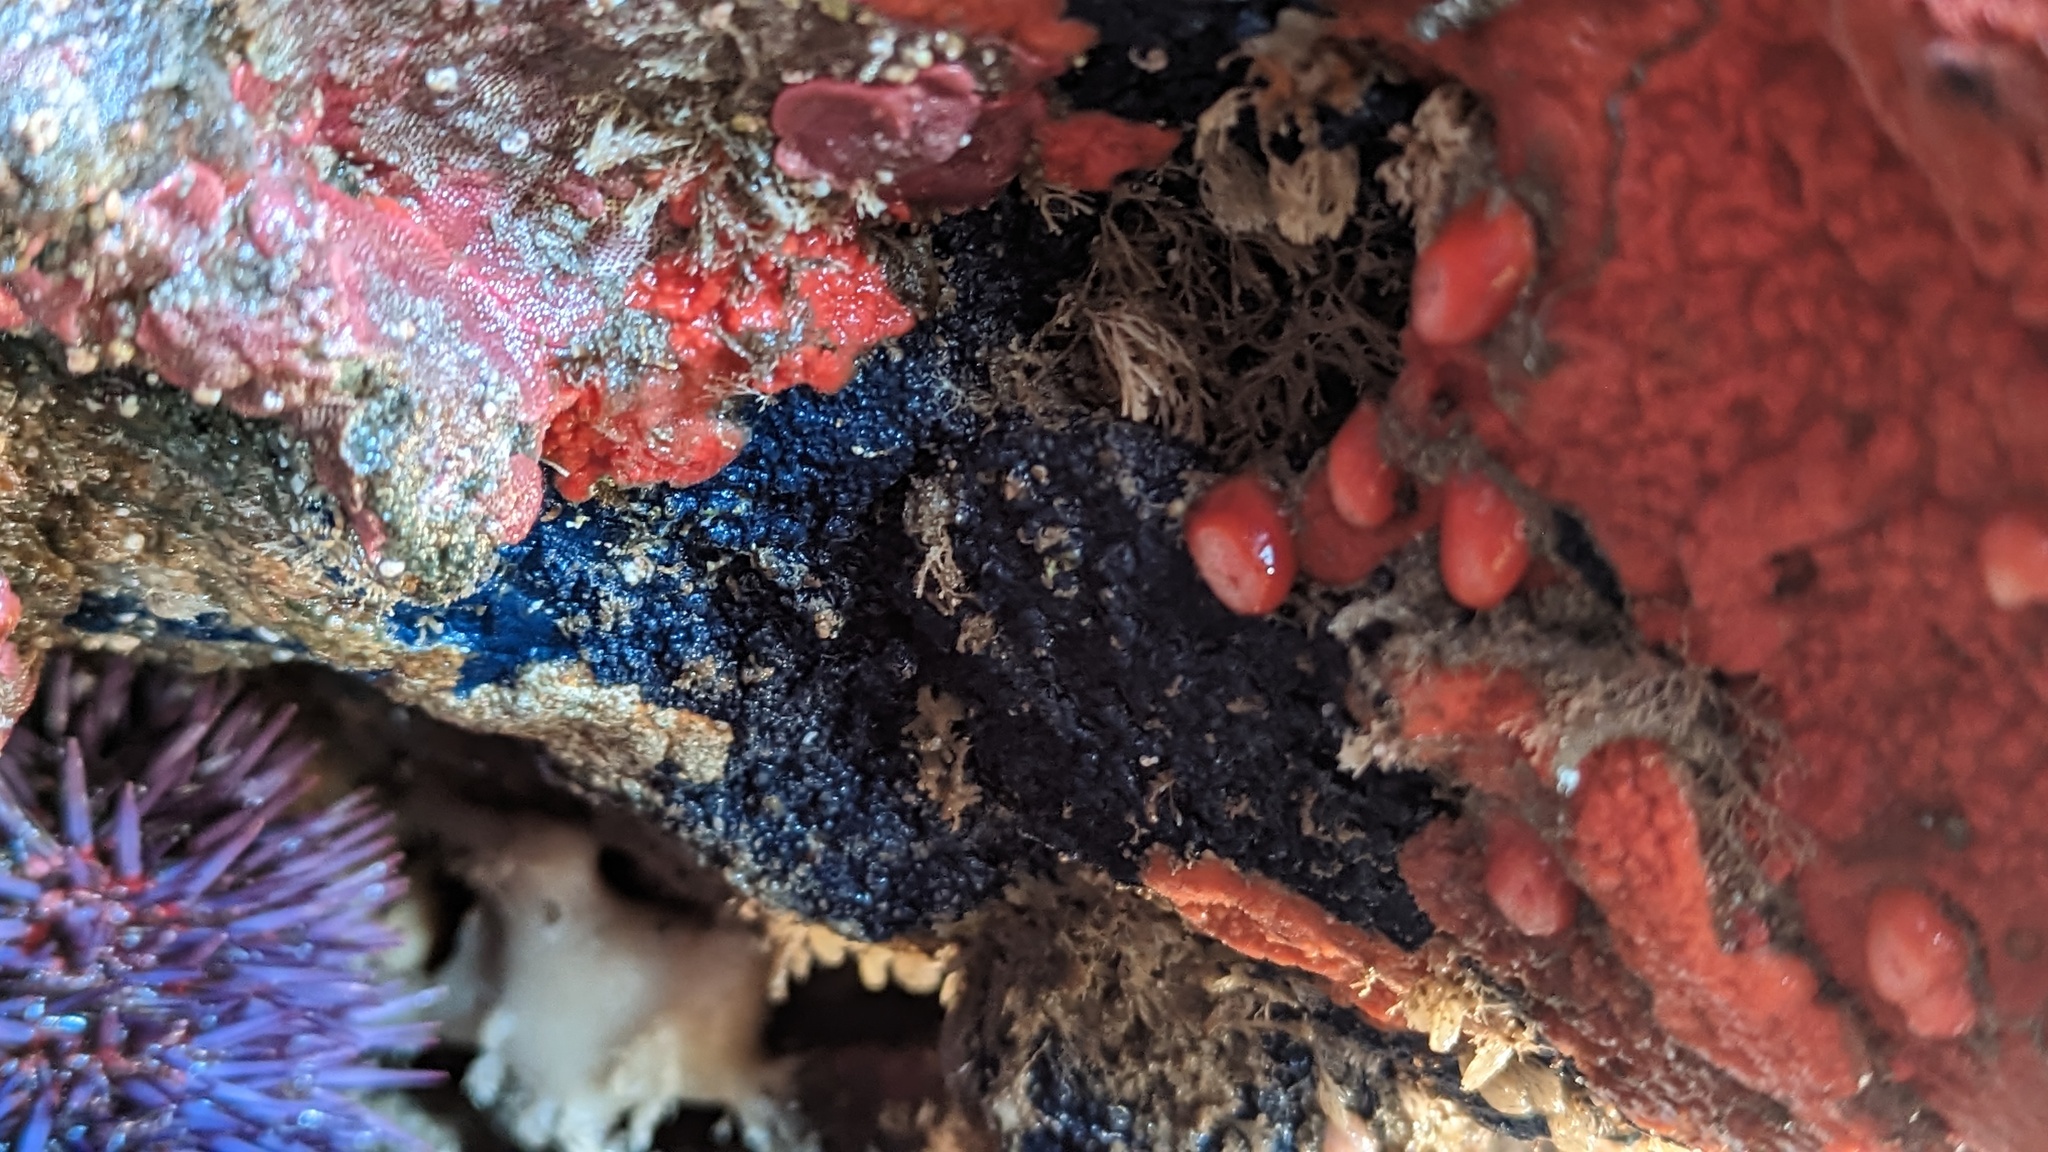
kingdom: Animalia
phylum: Porifera
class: Demospongiae
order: Poecilosclerida
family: Hymedesmiidae
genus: Acanthancora
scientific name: Acanthancora cyanocrypta
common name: Cobalt blue horny sponge
